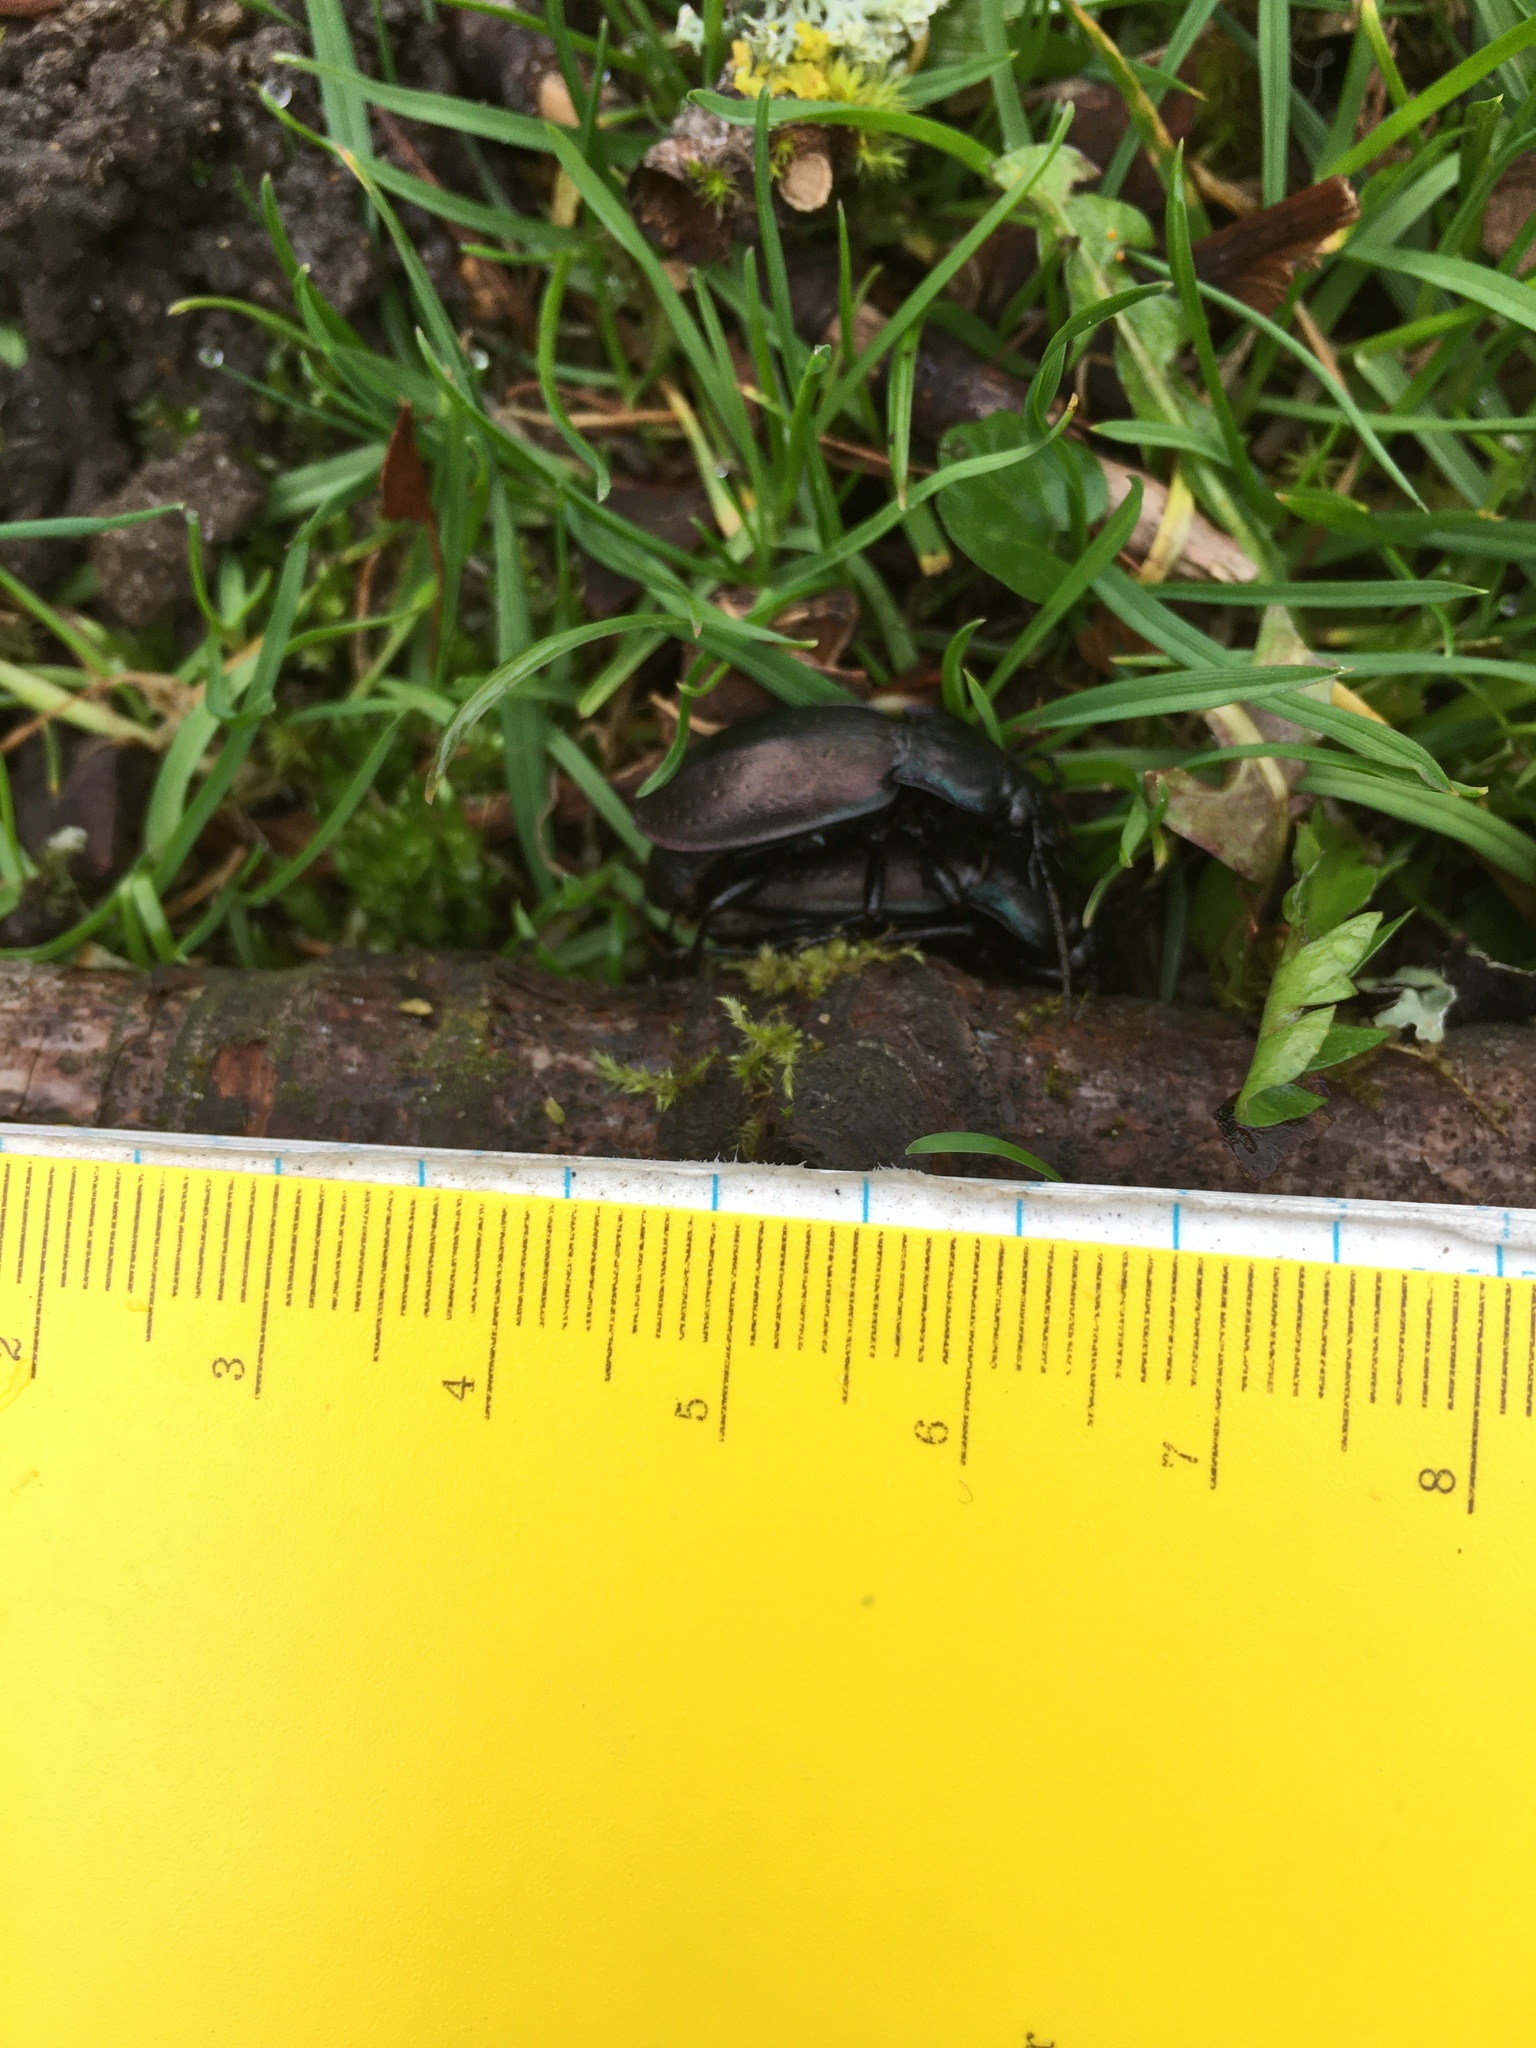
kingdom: Animalia
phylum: Arthropoda
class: Insecta
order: Coleoptera
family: Carabidae
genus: Carabus
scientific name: Carabus nemoralis
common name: European ground beetle
